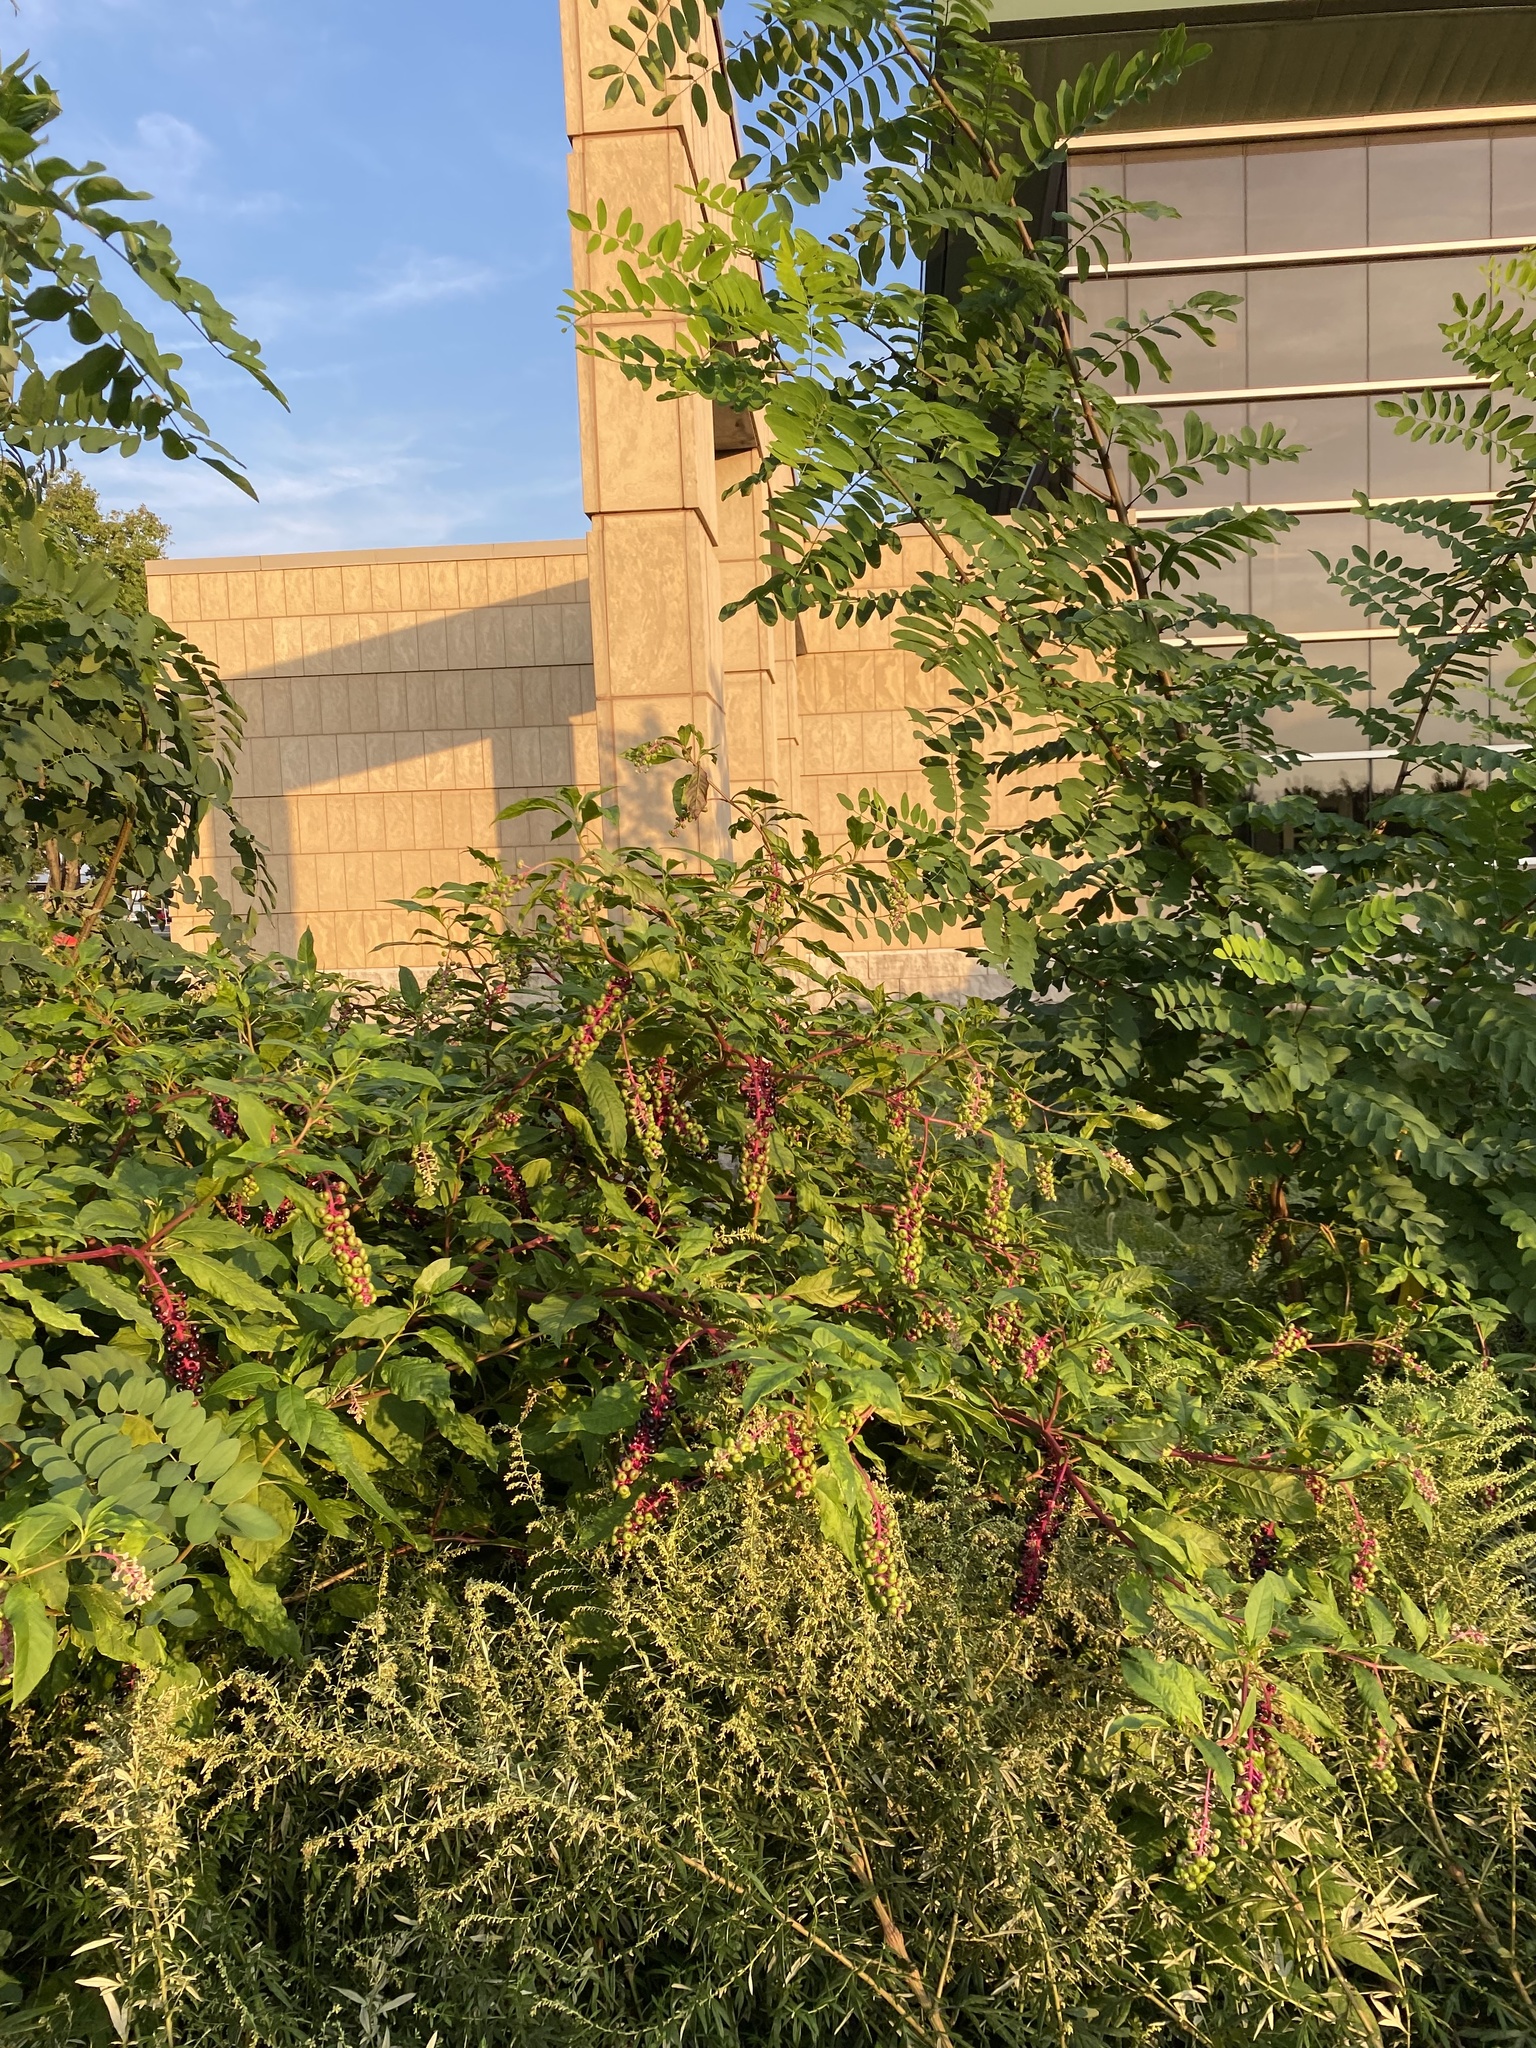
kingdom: Plantae
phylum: Tracheophyta
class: Magnoliopsida
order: Caryophyllales
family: Phytolaccaceae
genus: Phytolacca
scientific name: Phytolacca americana
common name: American pokeweed
